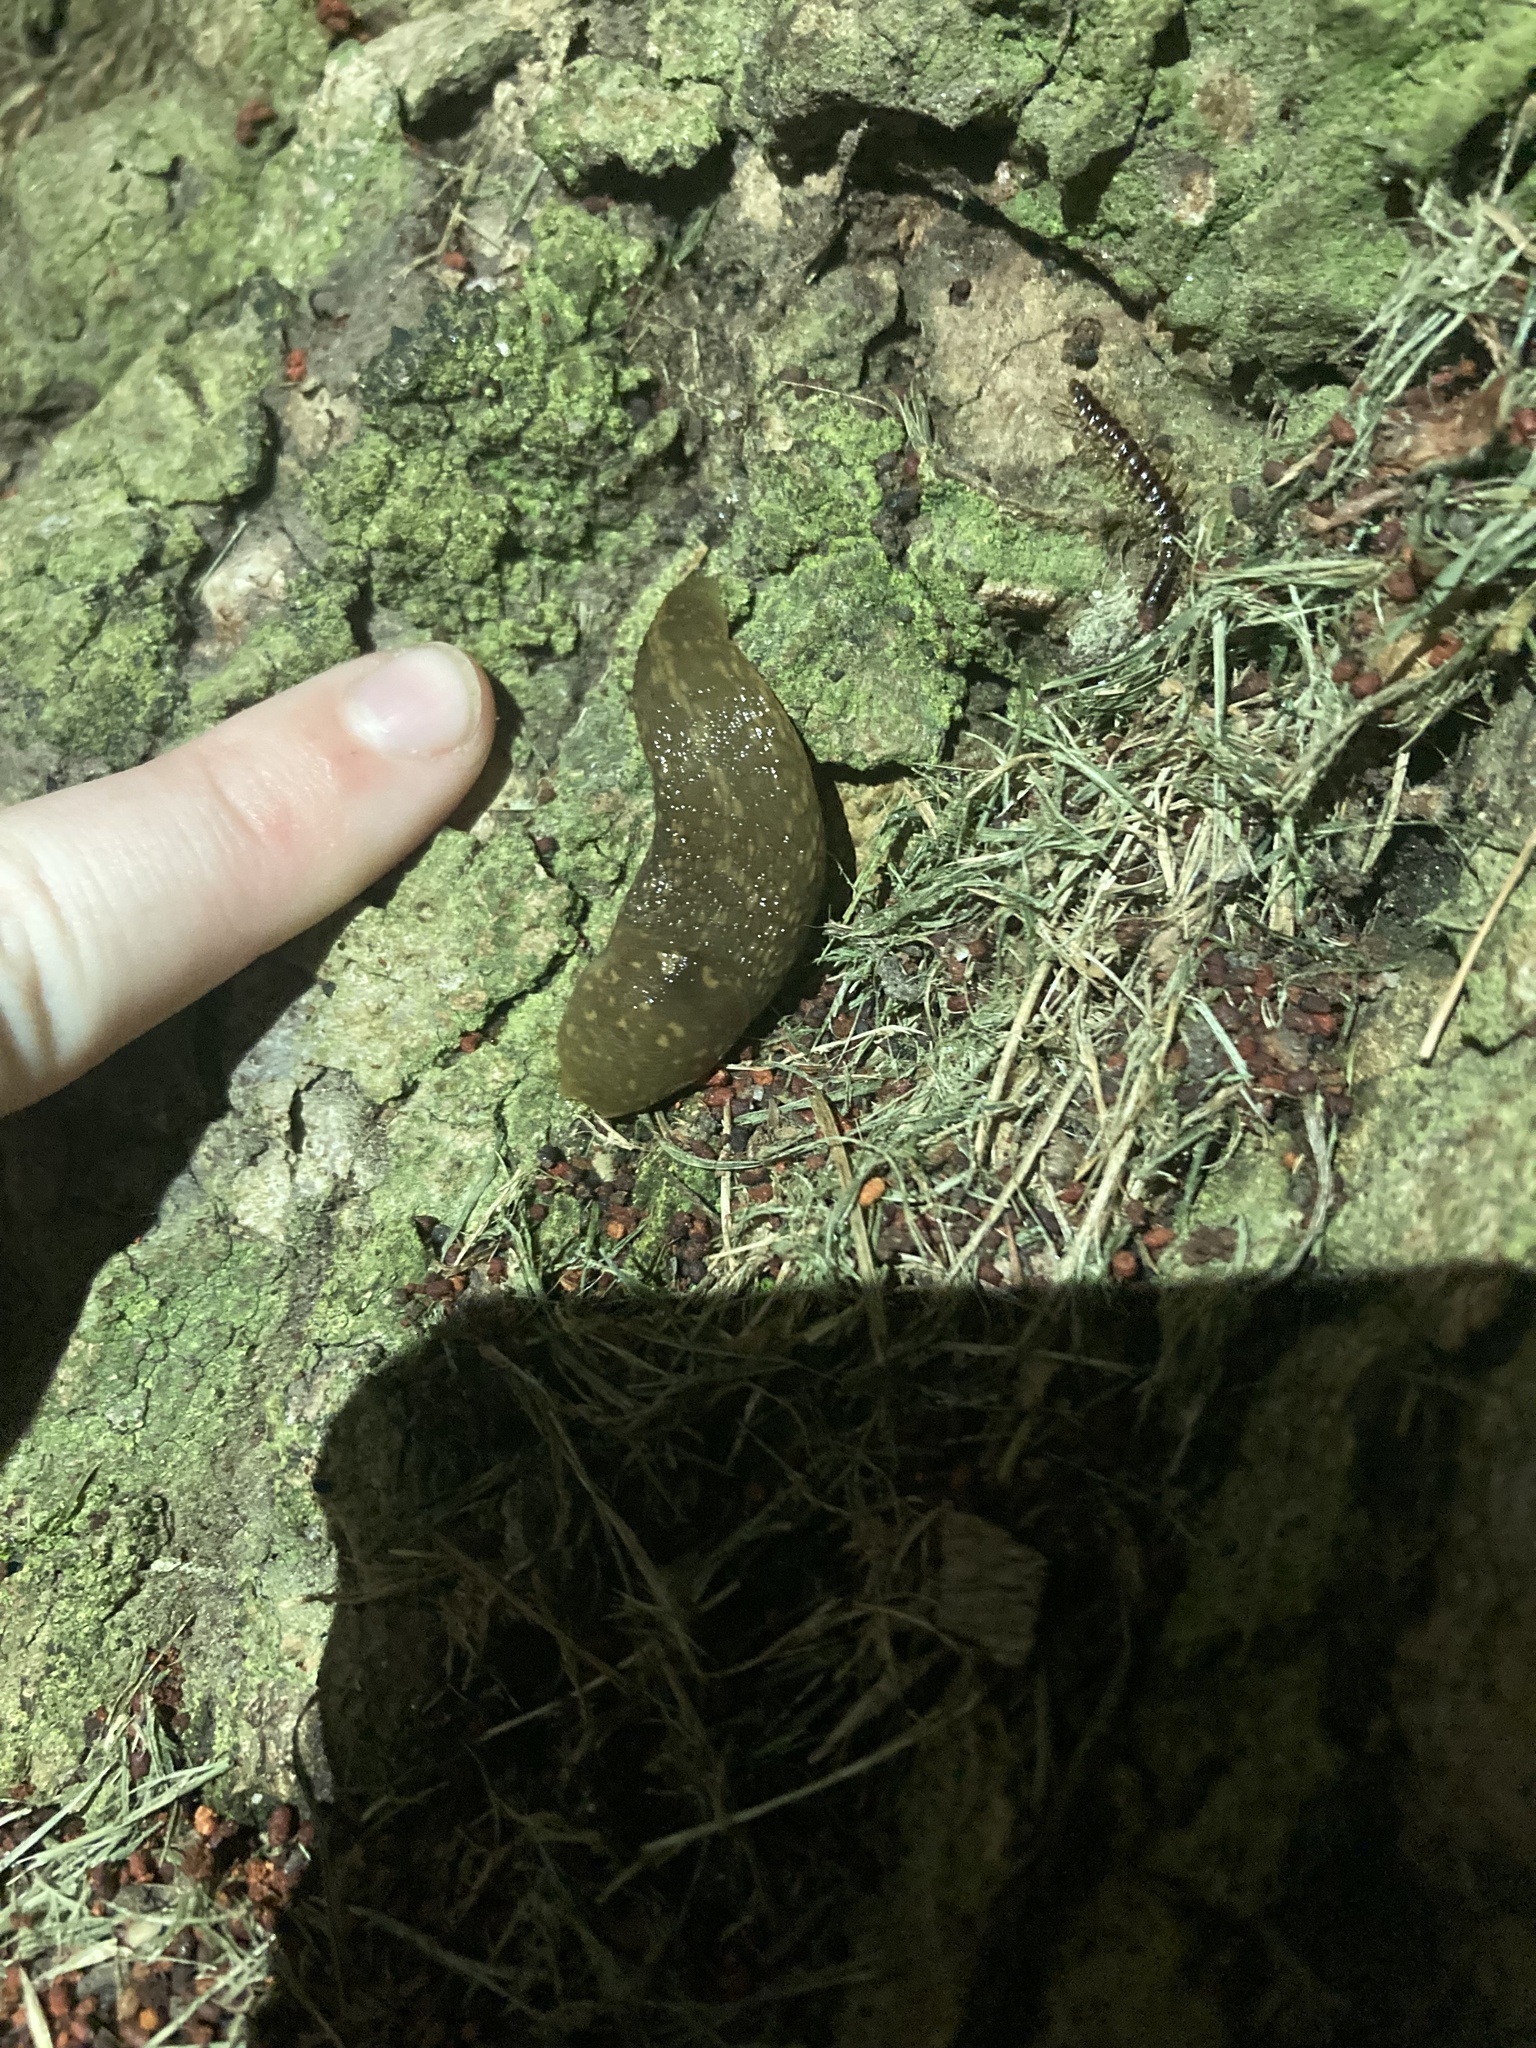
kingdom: Animalia
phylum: Mollusca
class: Gastropoda
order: Stylommatophora
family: Limacidae
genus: Limacus
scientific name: Limacus flavus
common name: Yellow gardenslug
